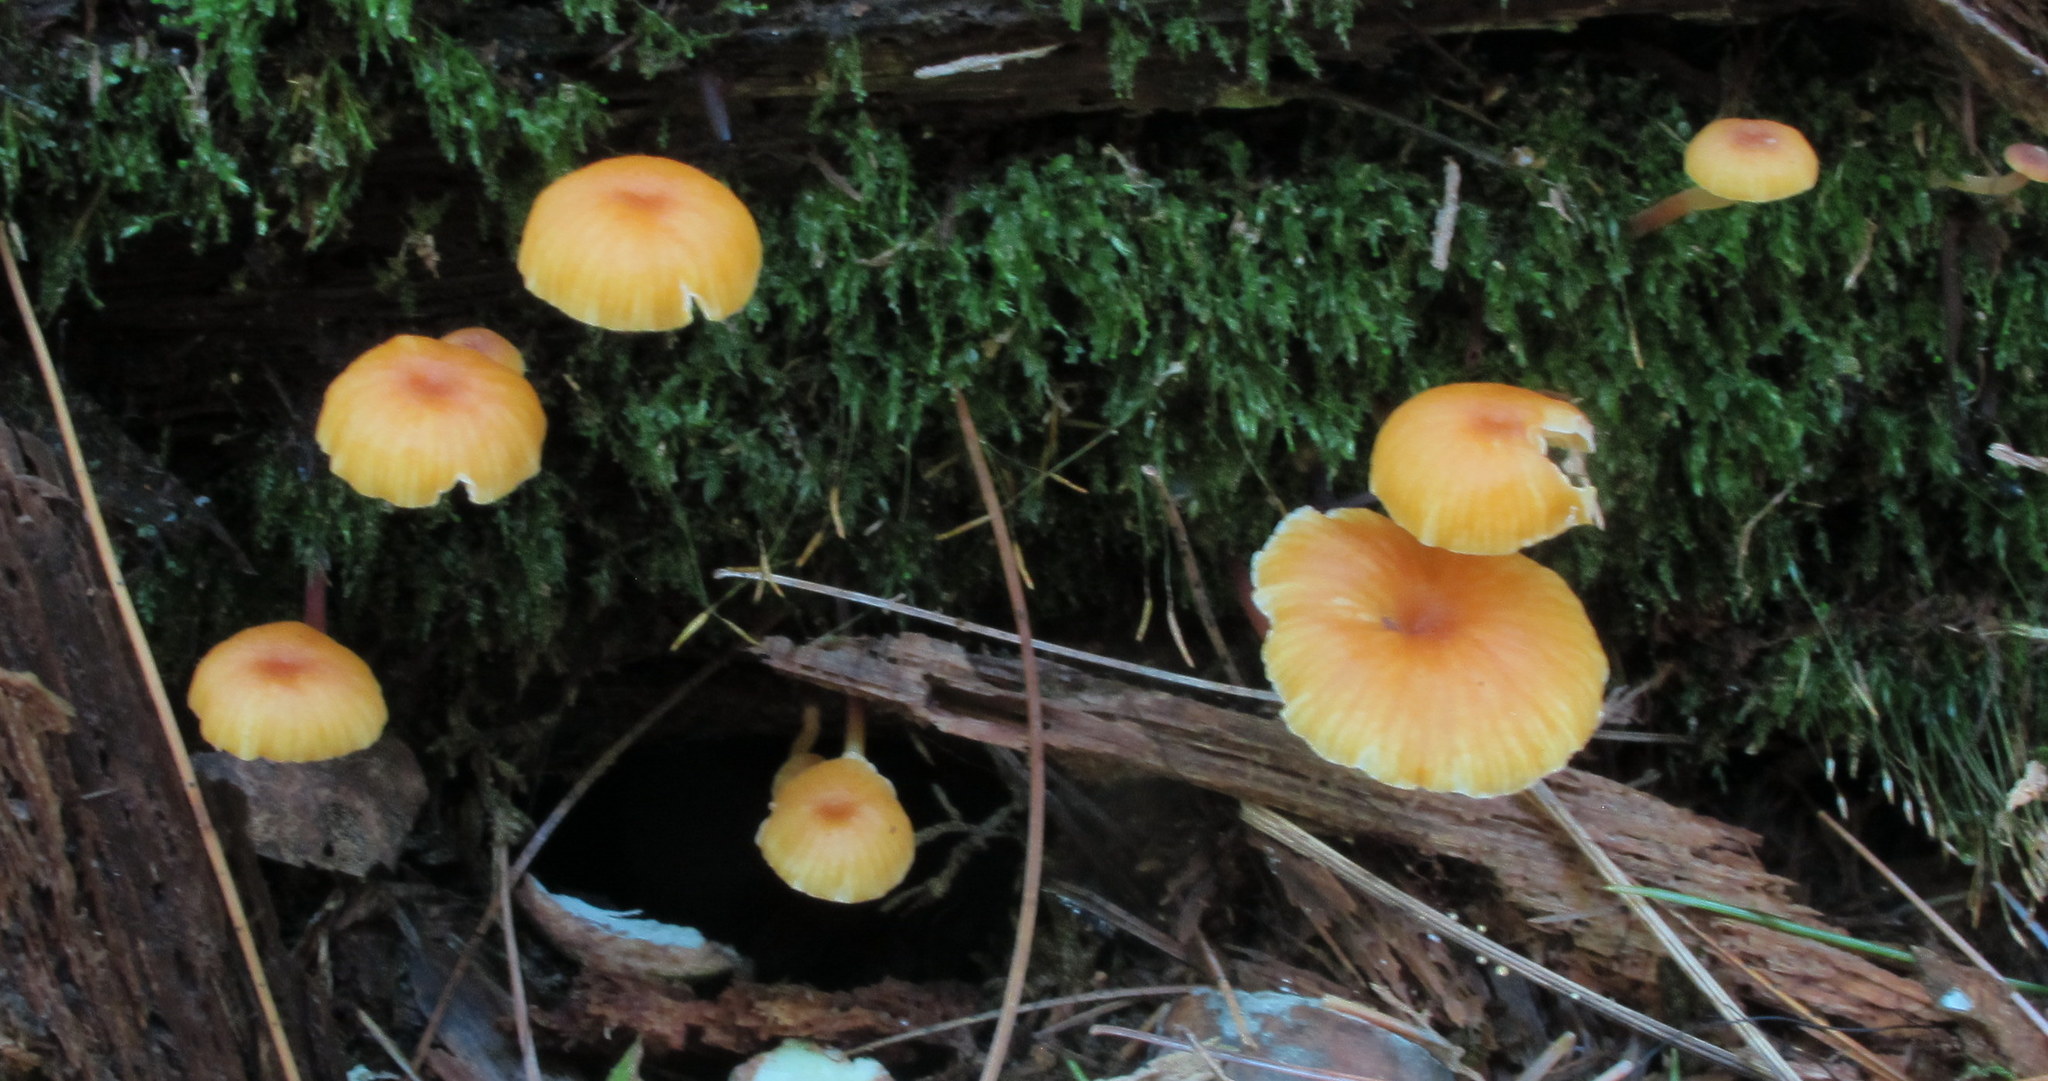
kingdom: Fungi
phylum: Basidiomycota
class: Agaricomycetes
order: Agaricales
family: Mycenaceae
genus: Xeromphalina
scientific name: Xeromphalina campanella
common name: Pinewood gingertail
